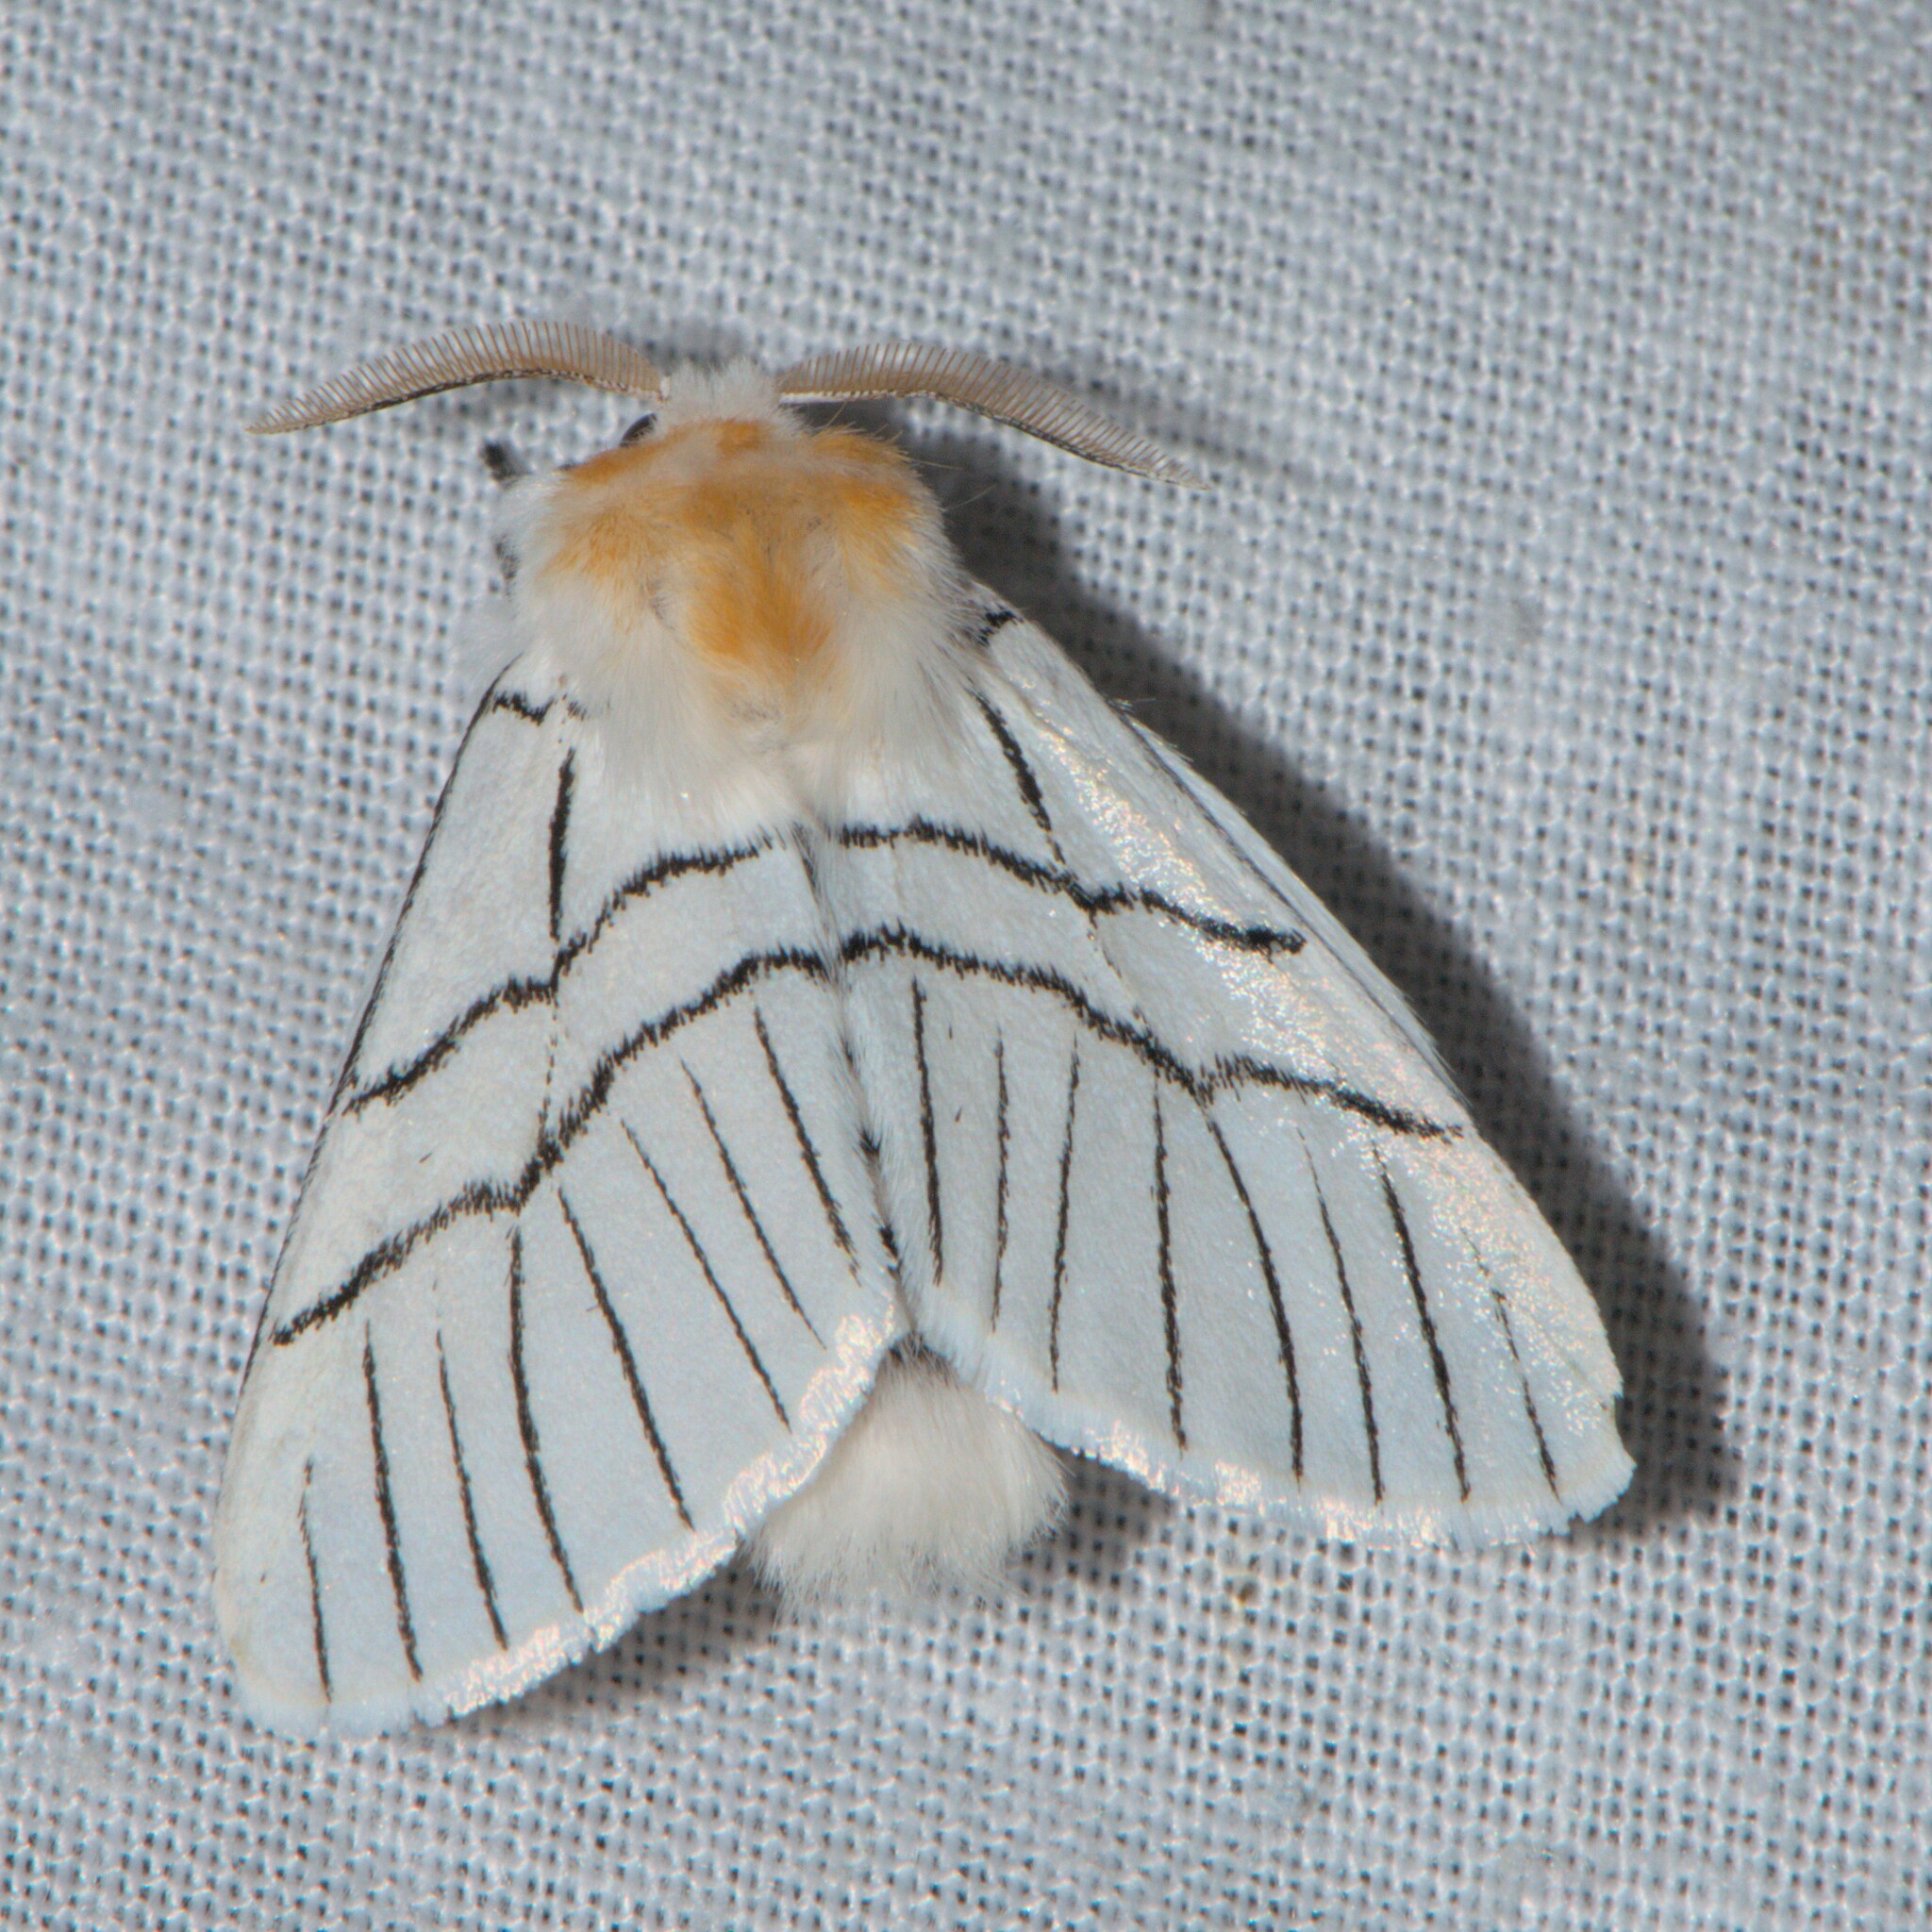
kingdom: Animalia
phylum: Arthropoda
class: Insecta
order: Lepidoptera
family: Notodontidae
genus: Oligoclona
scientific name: Oligoclona chrysolopha
